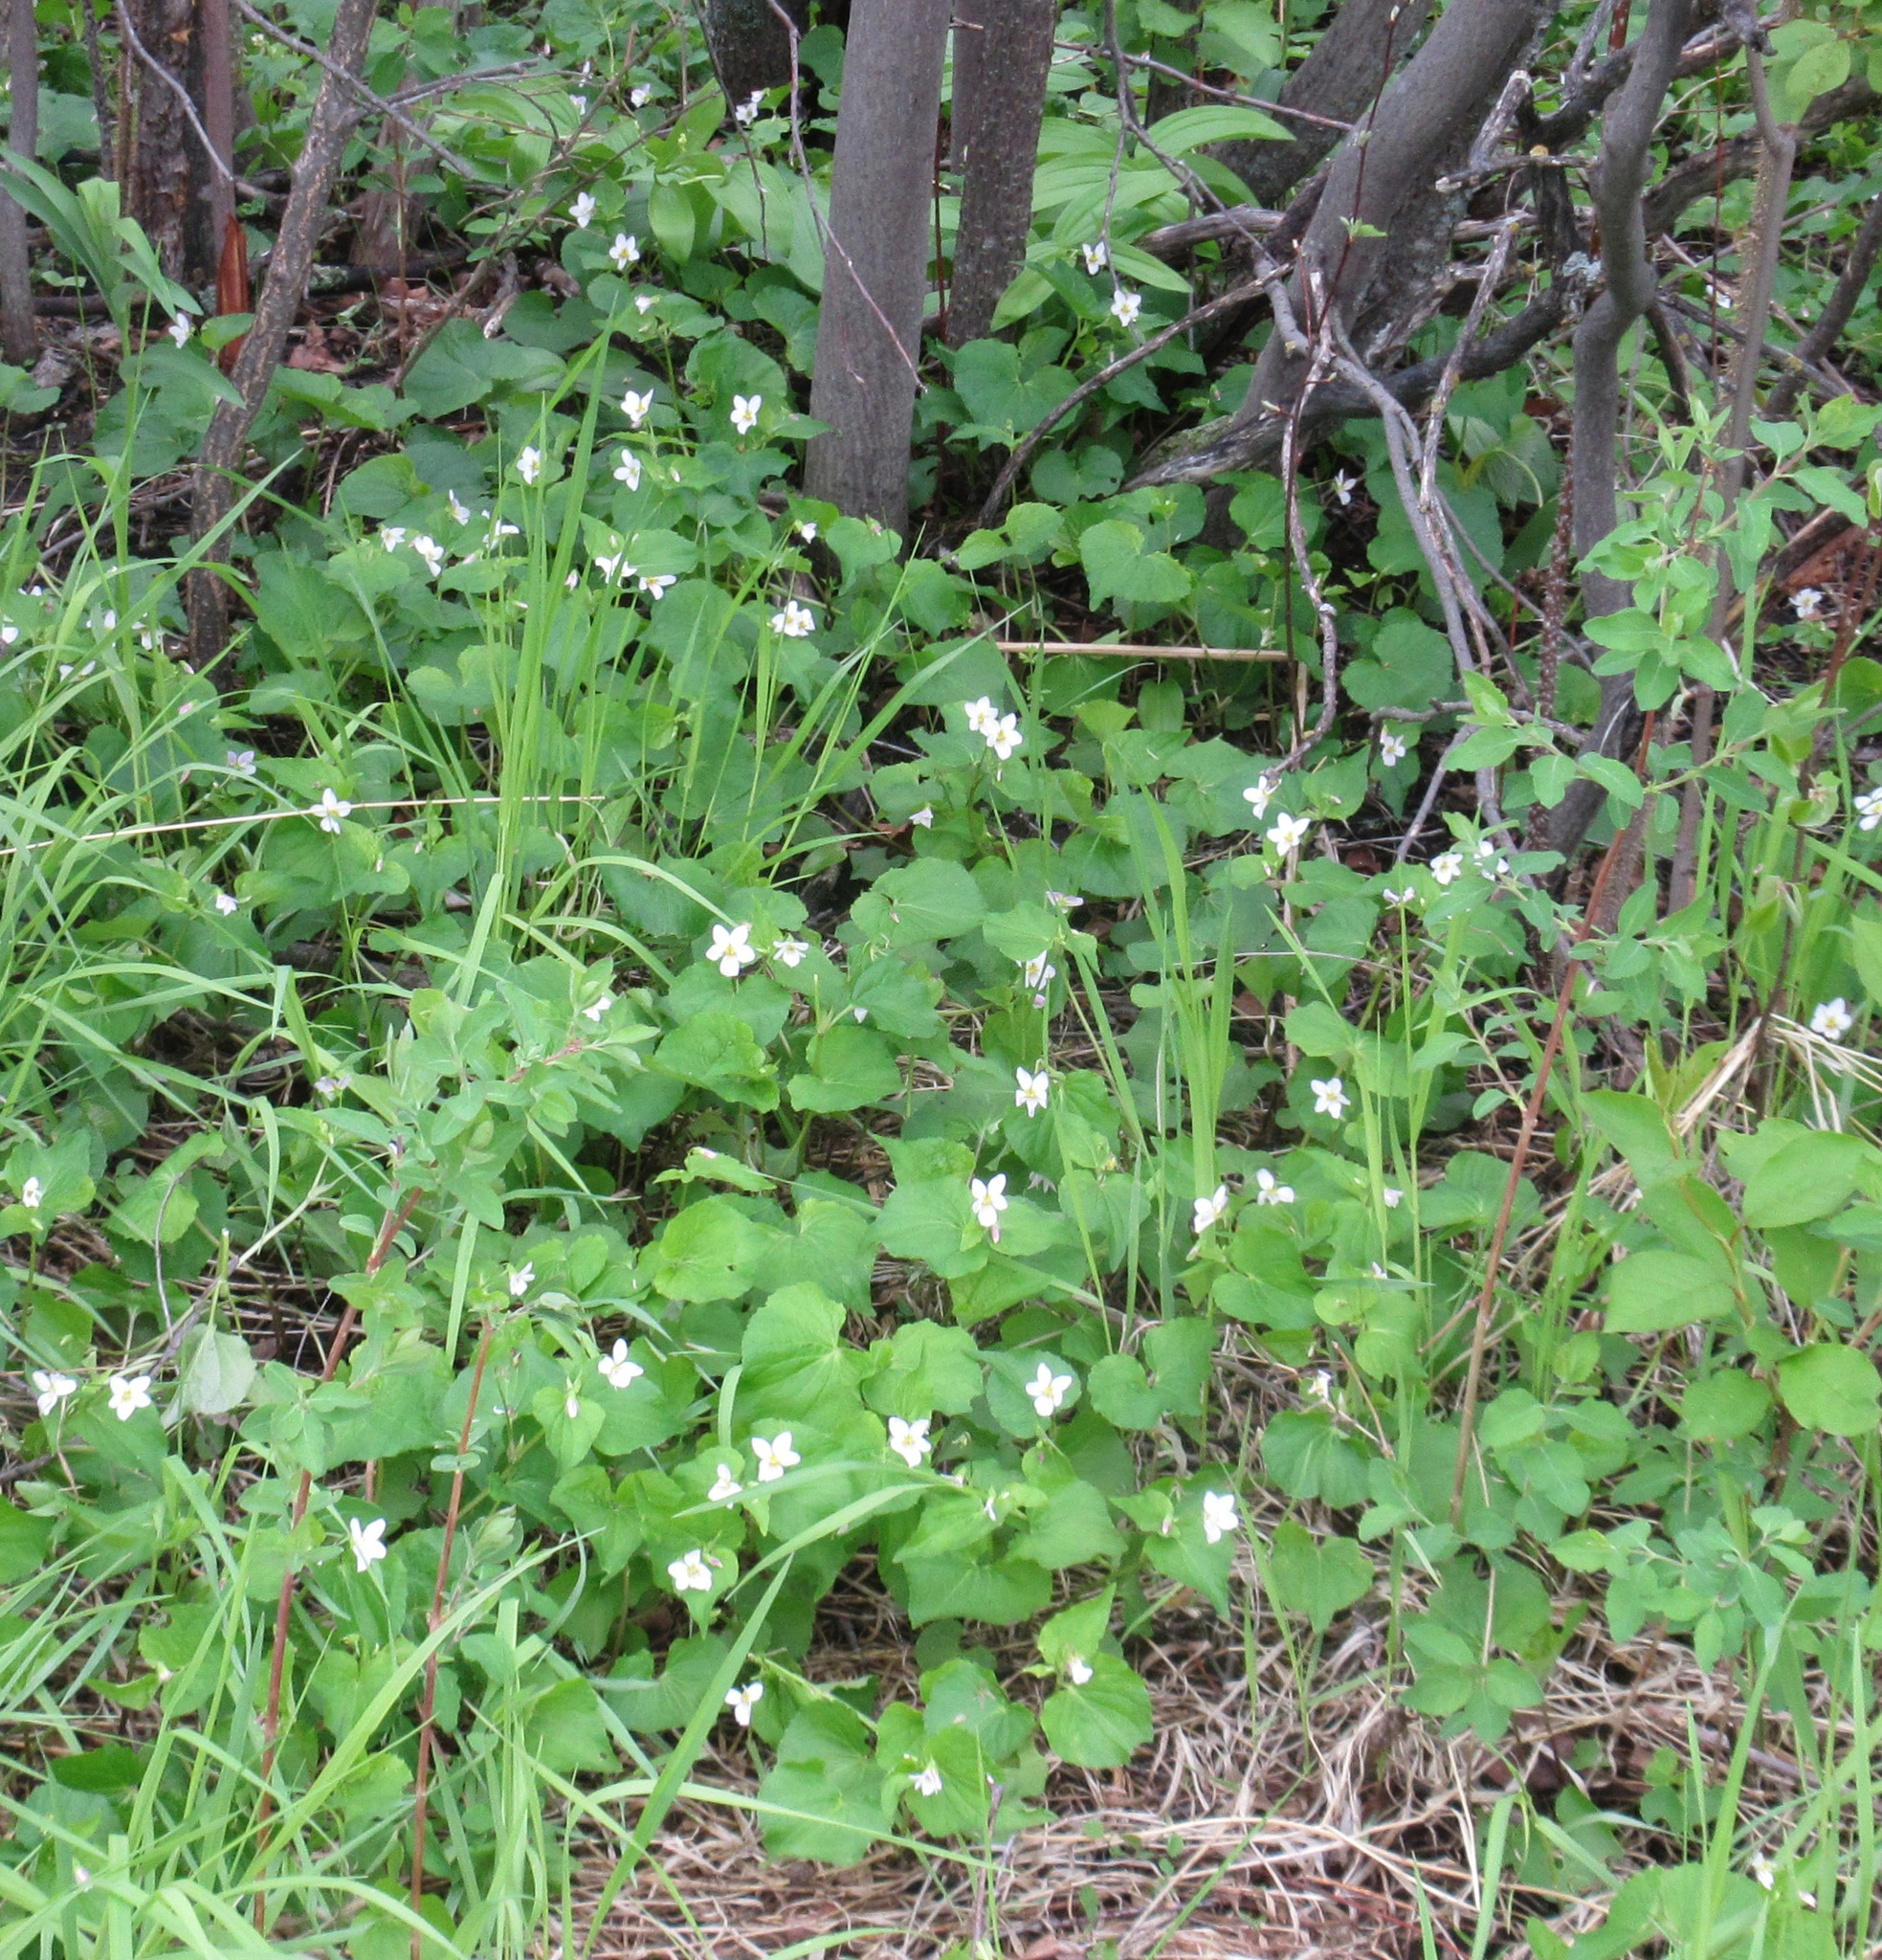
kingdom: Plantae
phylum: Tracheophyta
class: Magnoliopsida
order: Malpighiales
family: Violaceae
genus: Viola
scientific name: Viola canadensis
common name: Canada violet
